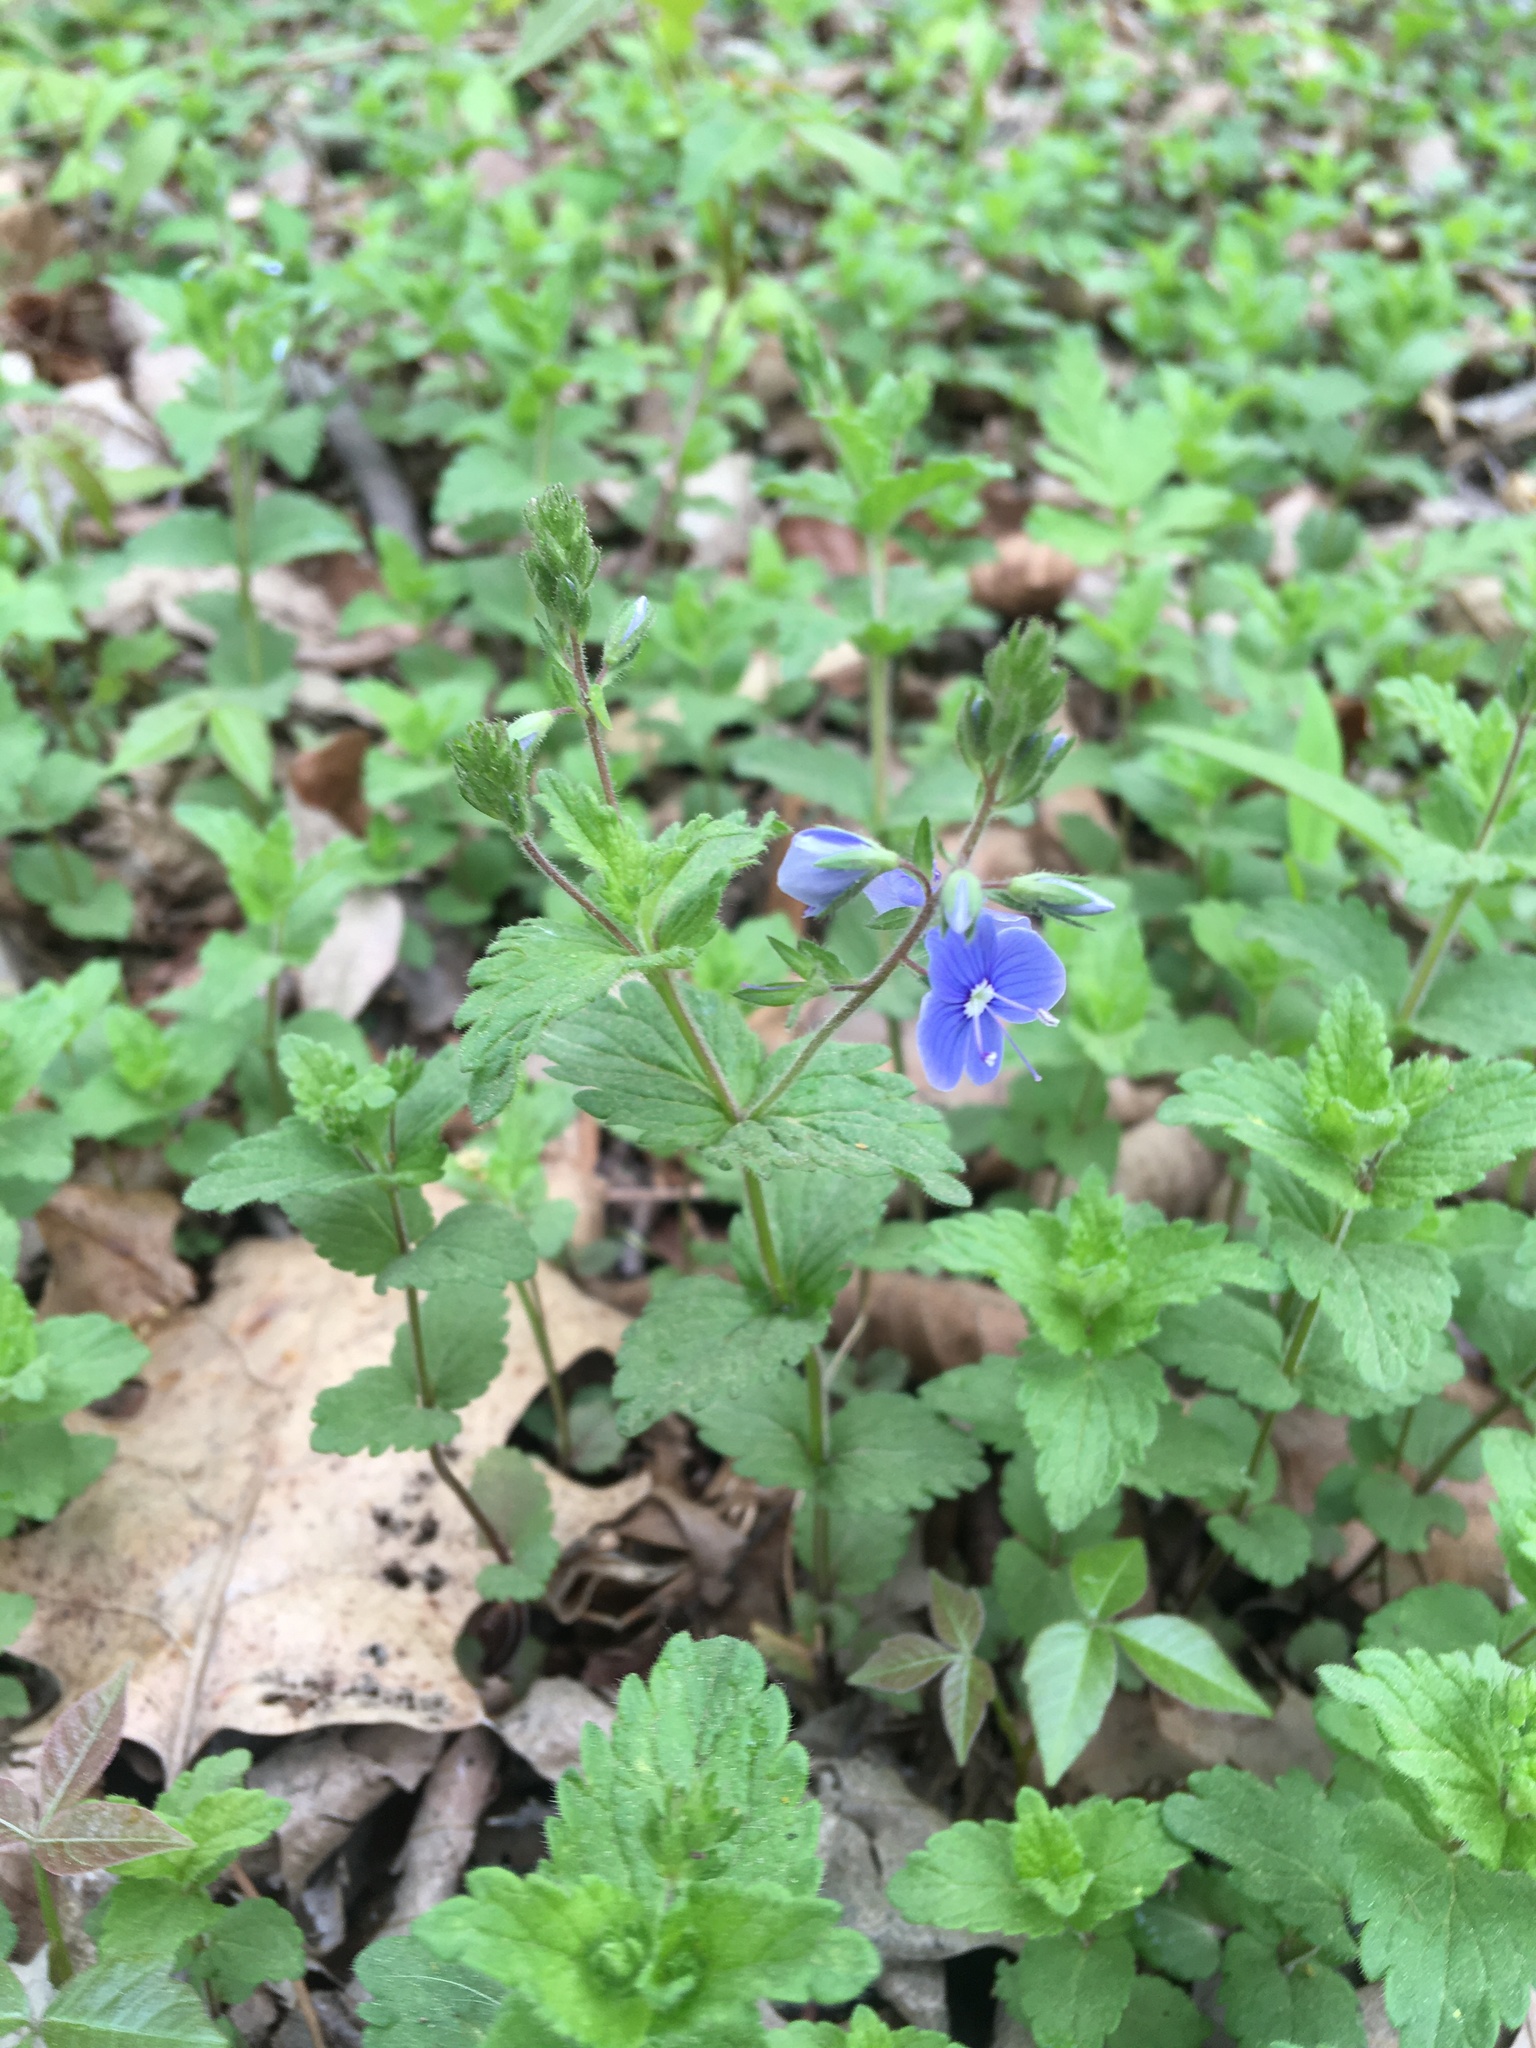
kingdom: Plantae
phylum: Tracheophyta
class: Magnoliopsida
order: Lamiales
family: Plantaginaceae
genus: Veronica
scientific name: Veronica chamaedrys
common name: Germander speedwell
